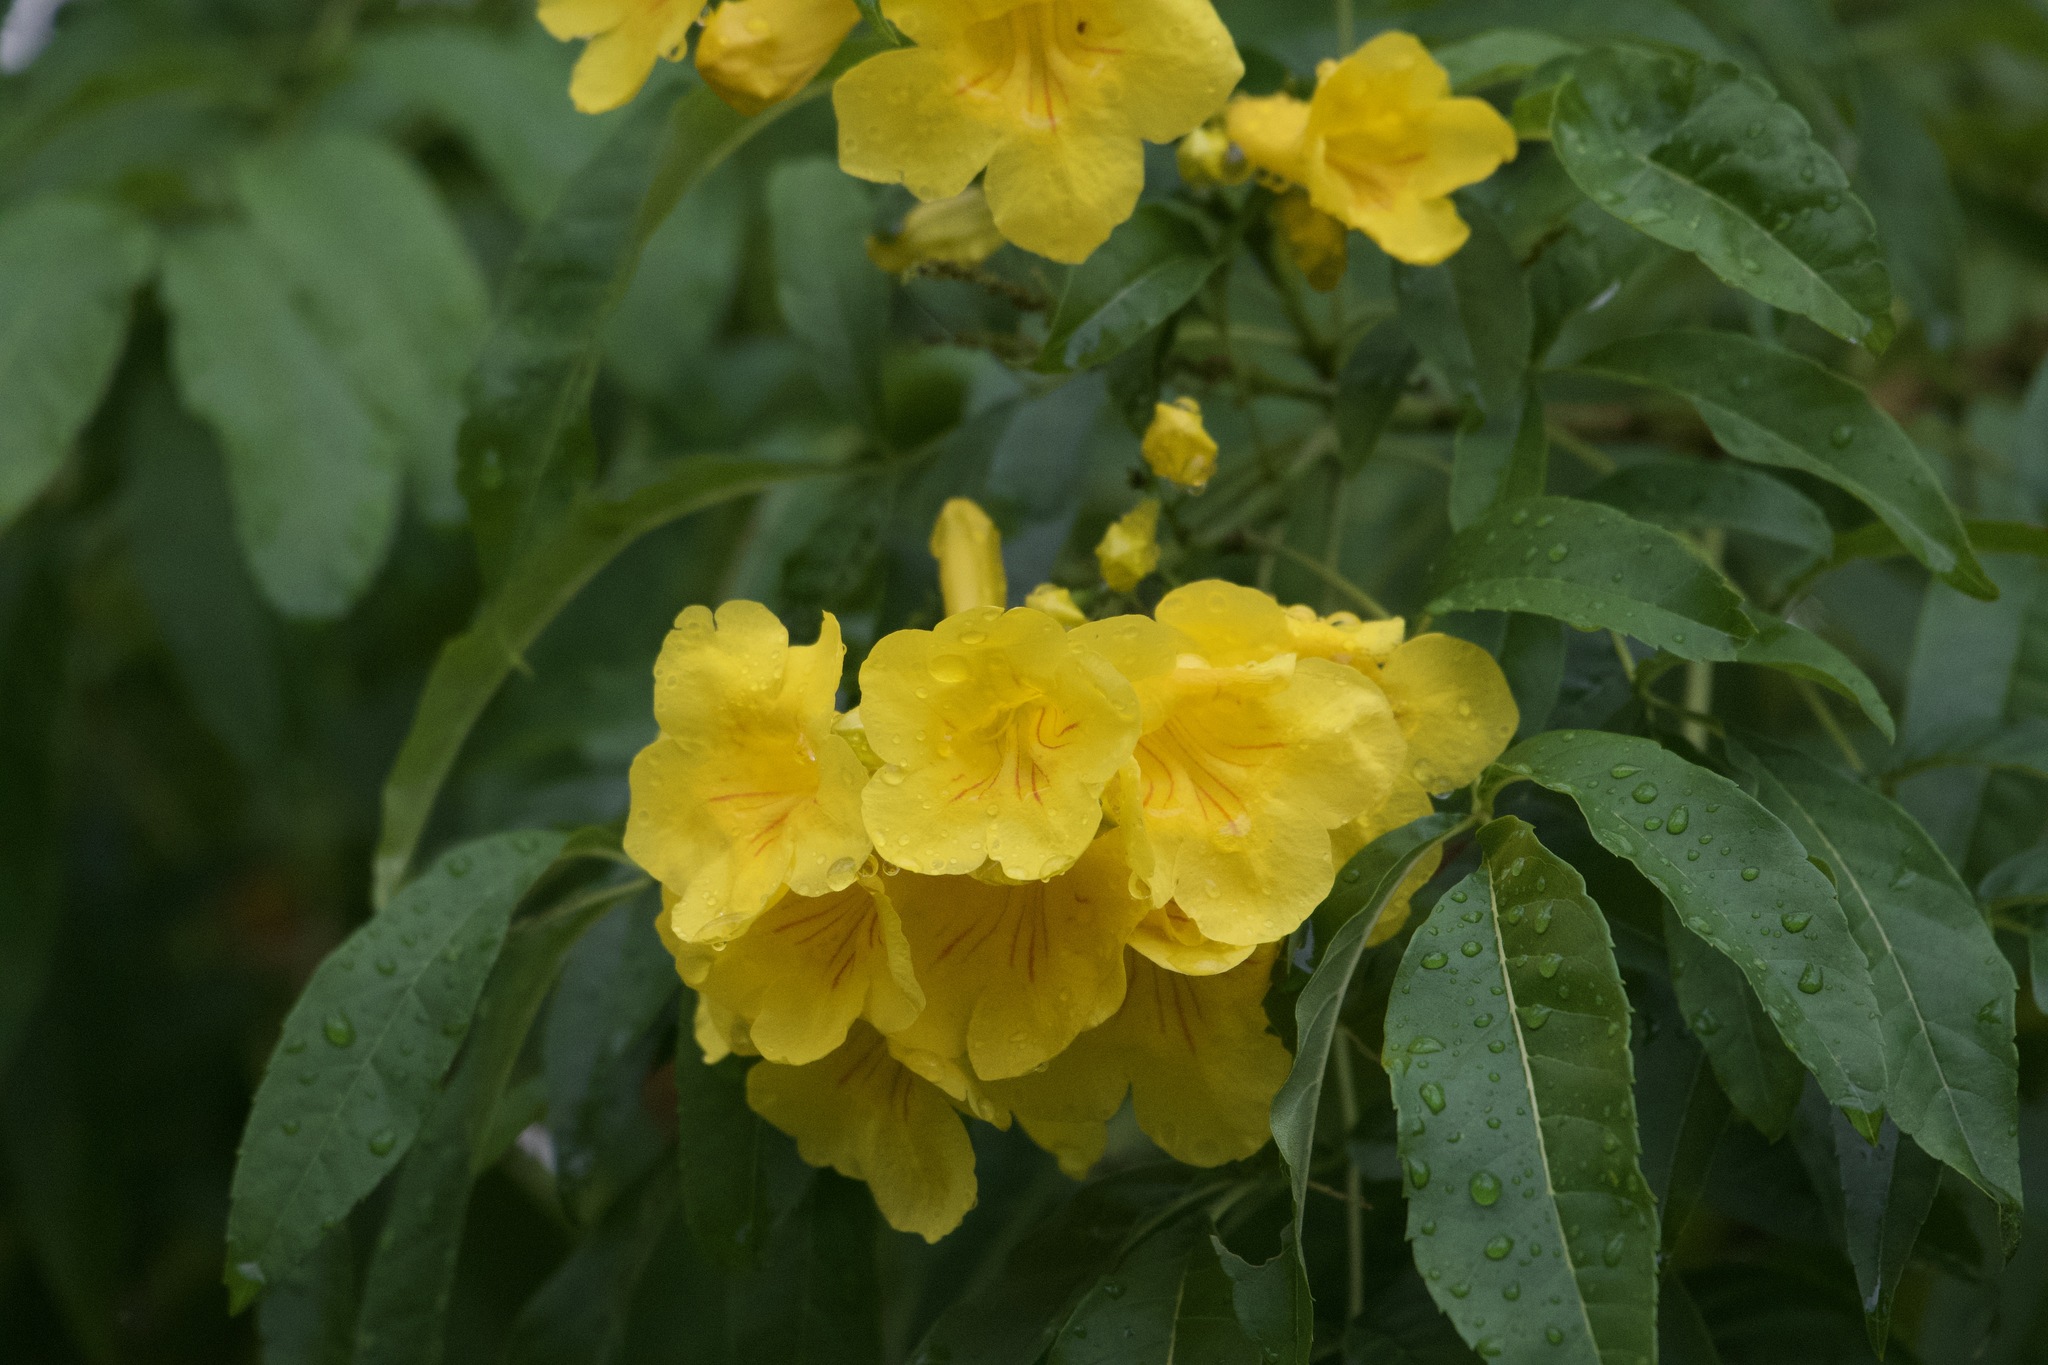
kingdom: Plantae
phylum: Tracheophyta
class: Magnoliopsida
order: Lamiales
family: Bignoniaceae
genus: Tecoma
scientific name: Tecoma stans
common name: Yellow trumpetbush
